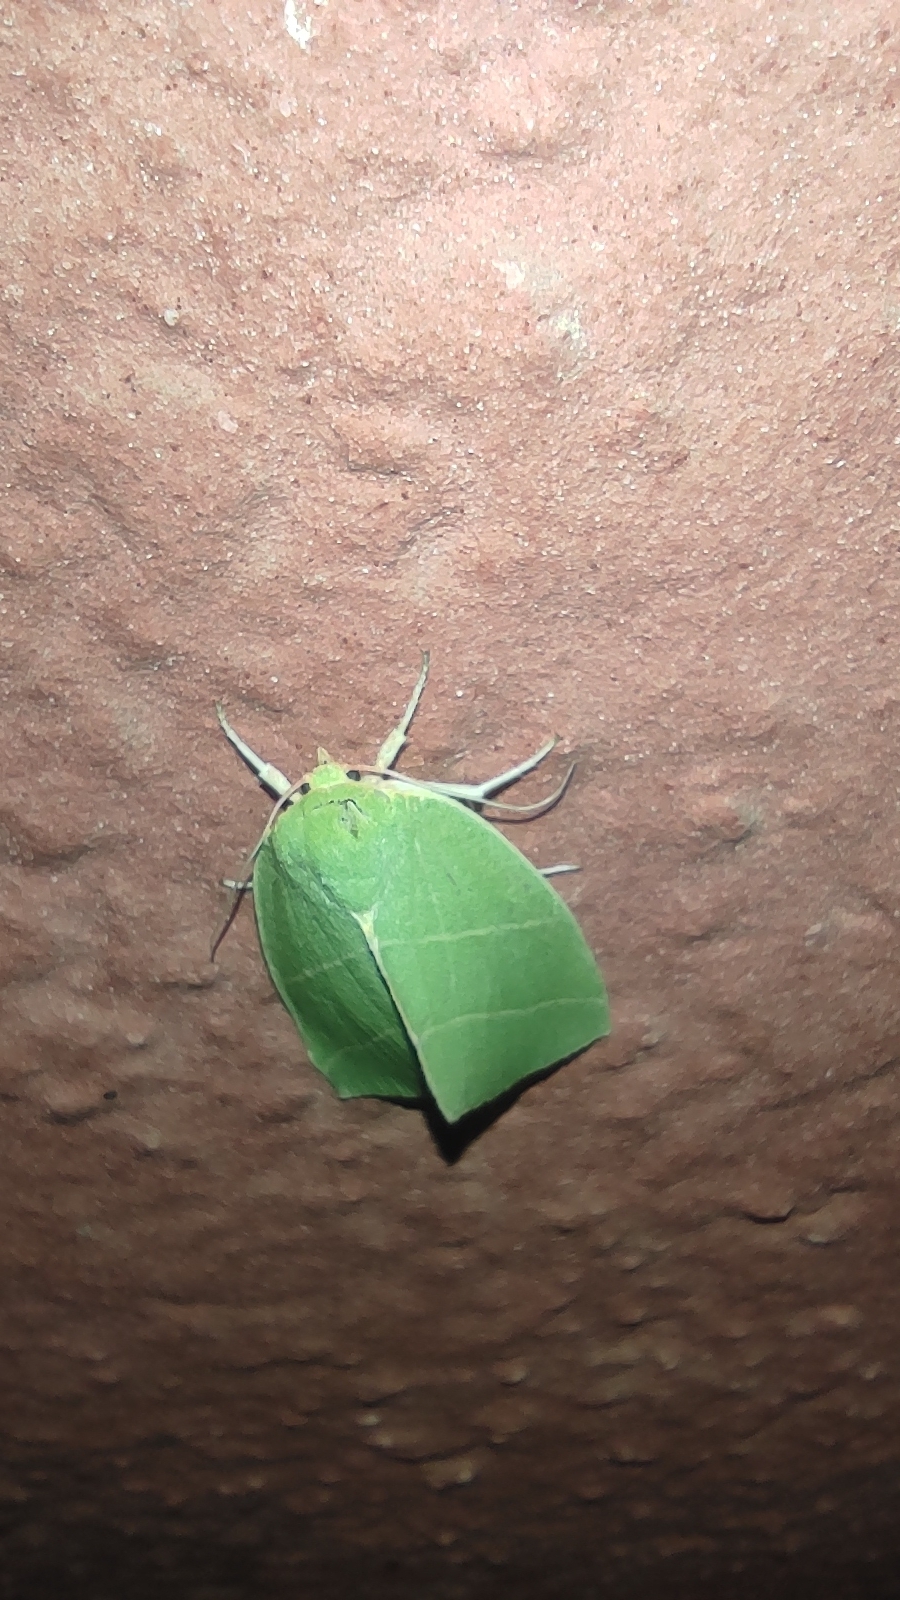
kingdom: Animalia
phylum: Arthropoda
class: Insecta
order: Lepidoptera
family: Nolidae
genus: Bena
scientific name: Bena bicolorana
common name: Scarce silver-lines
